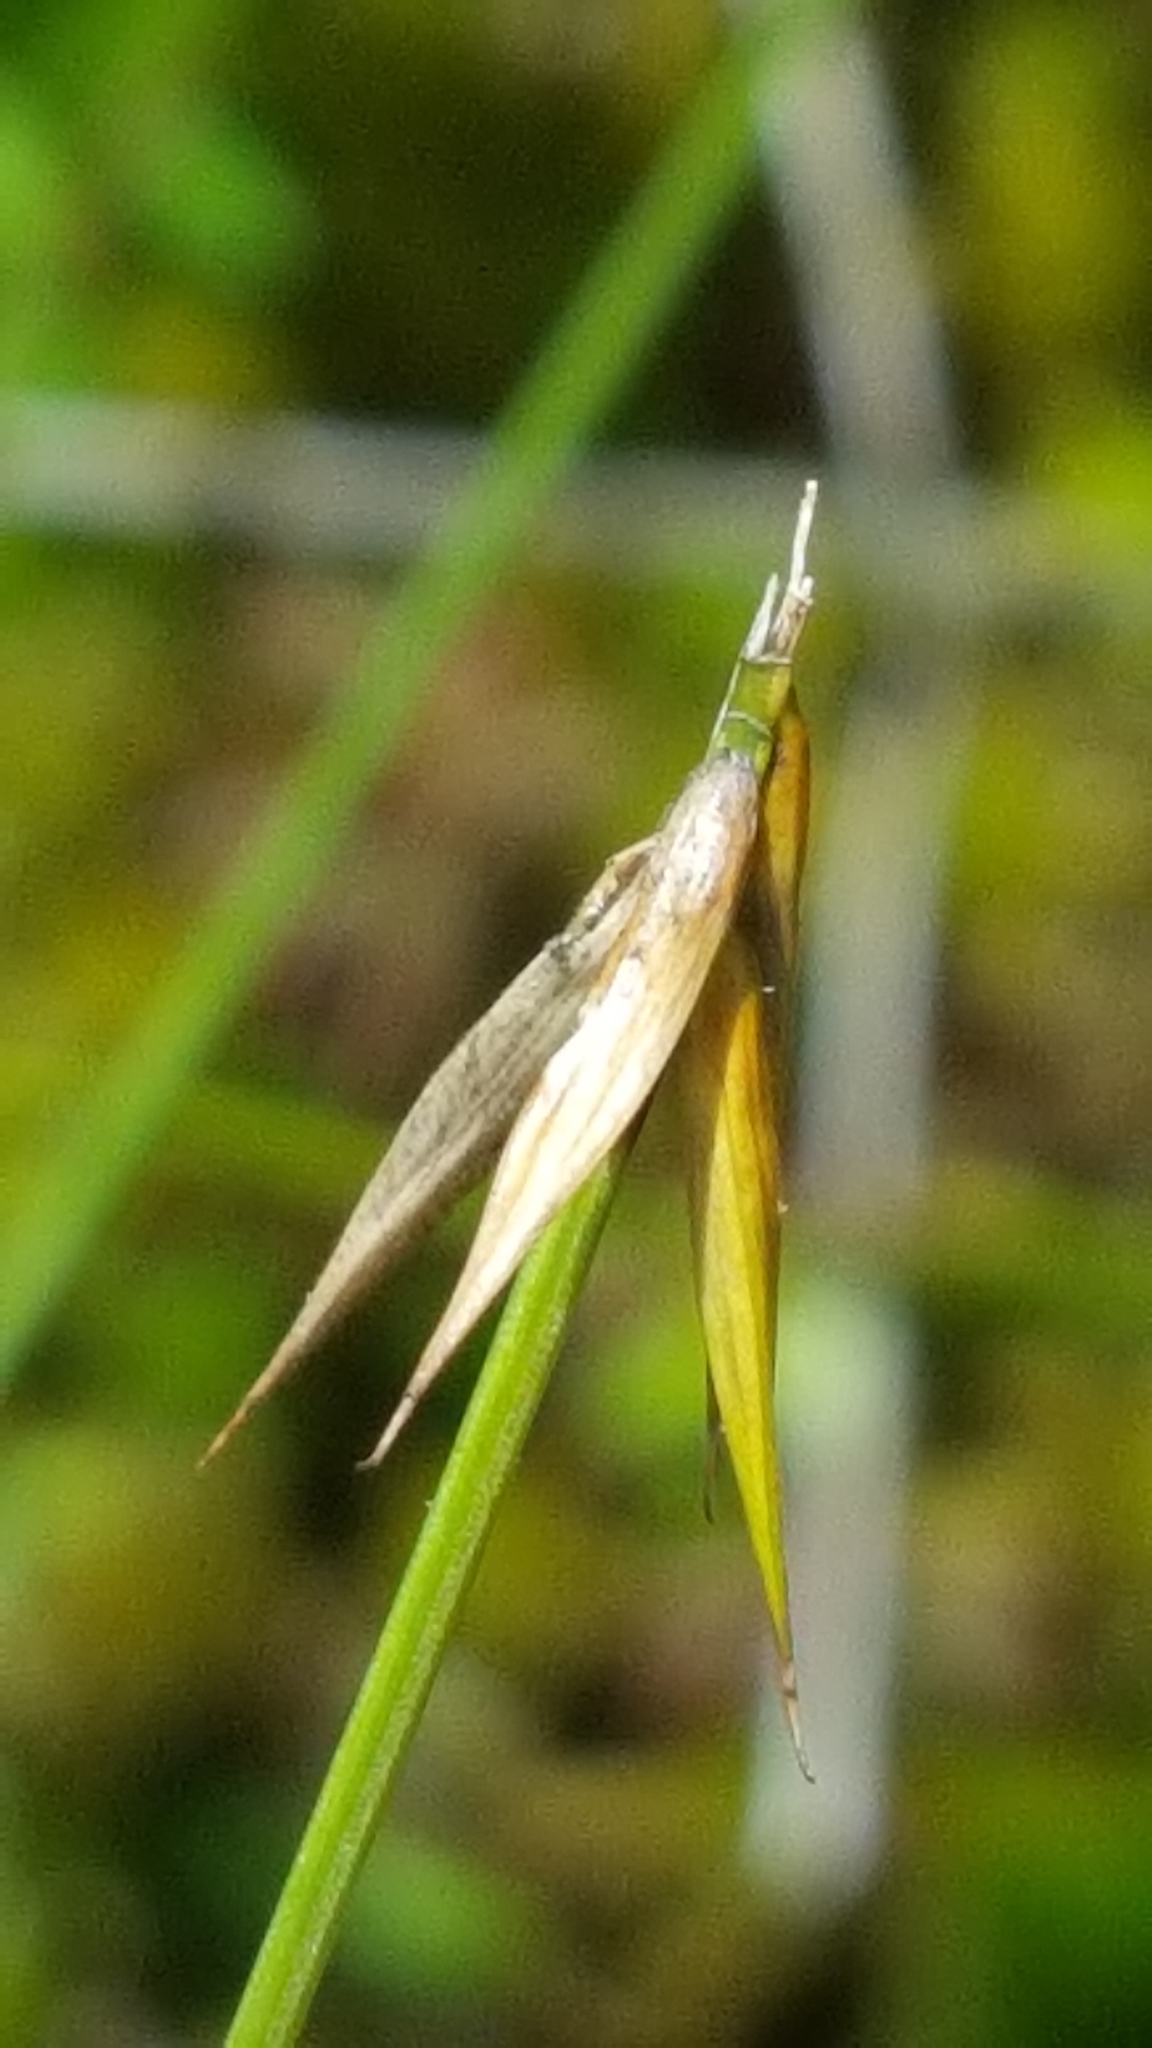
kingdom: Plantae
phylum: Tracheophyta
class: Liliopsida
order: Poales
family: Cyperaceae
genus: Carex
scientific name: Carex pauciflora
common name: Few-flowered sedge
